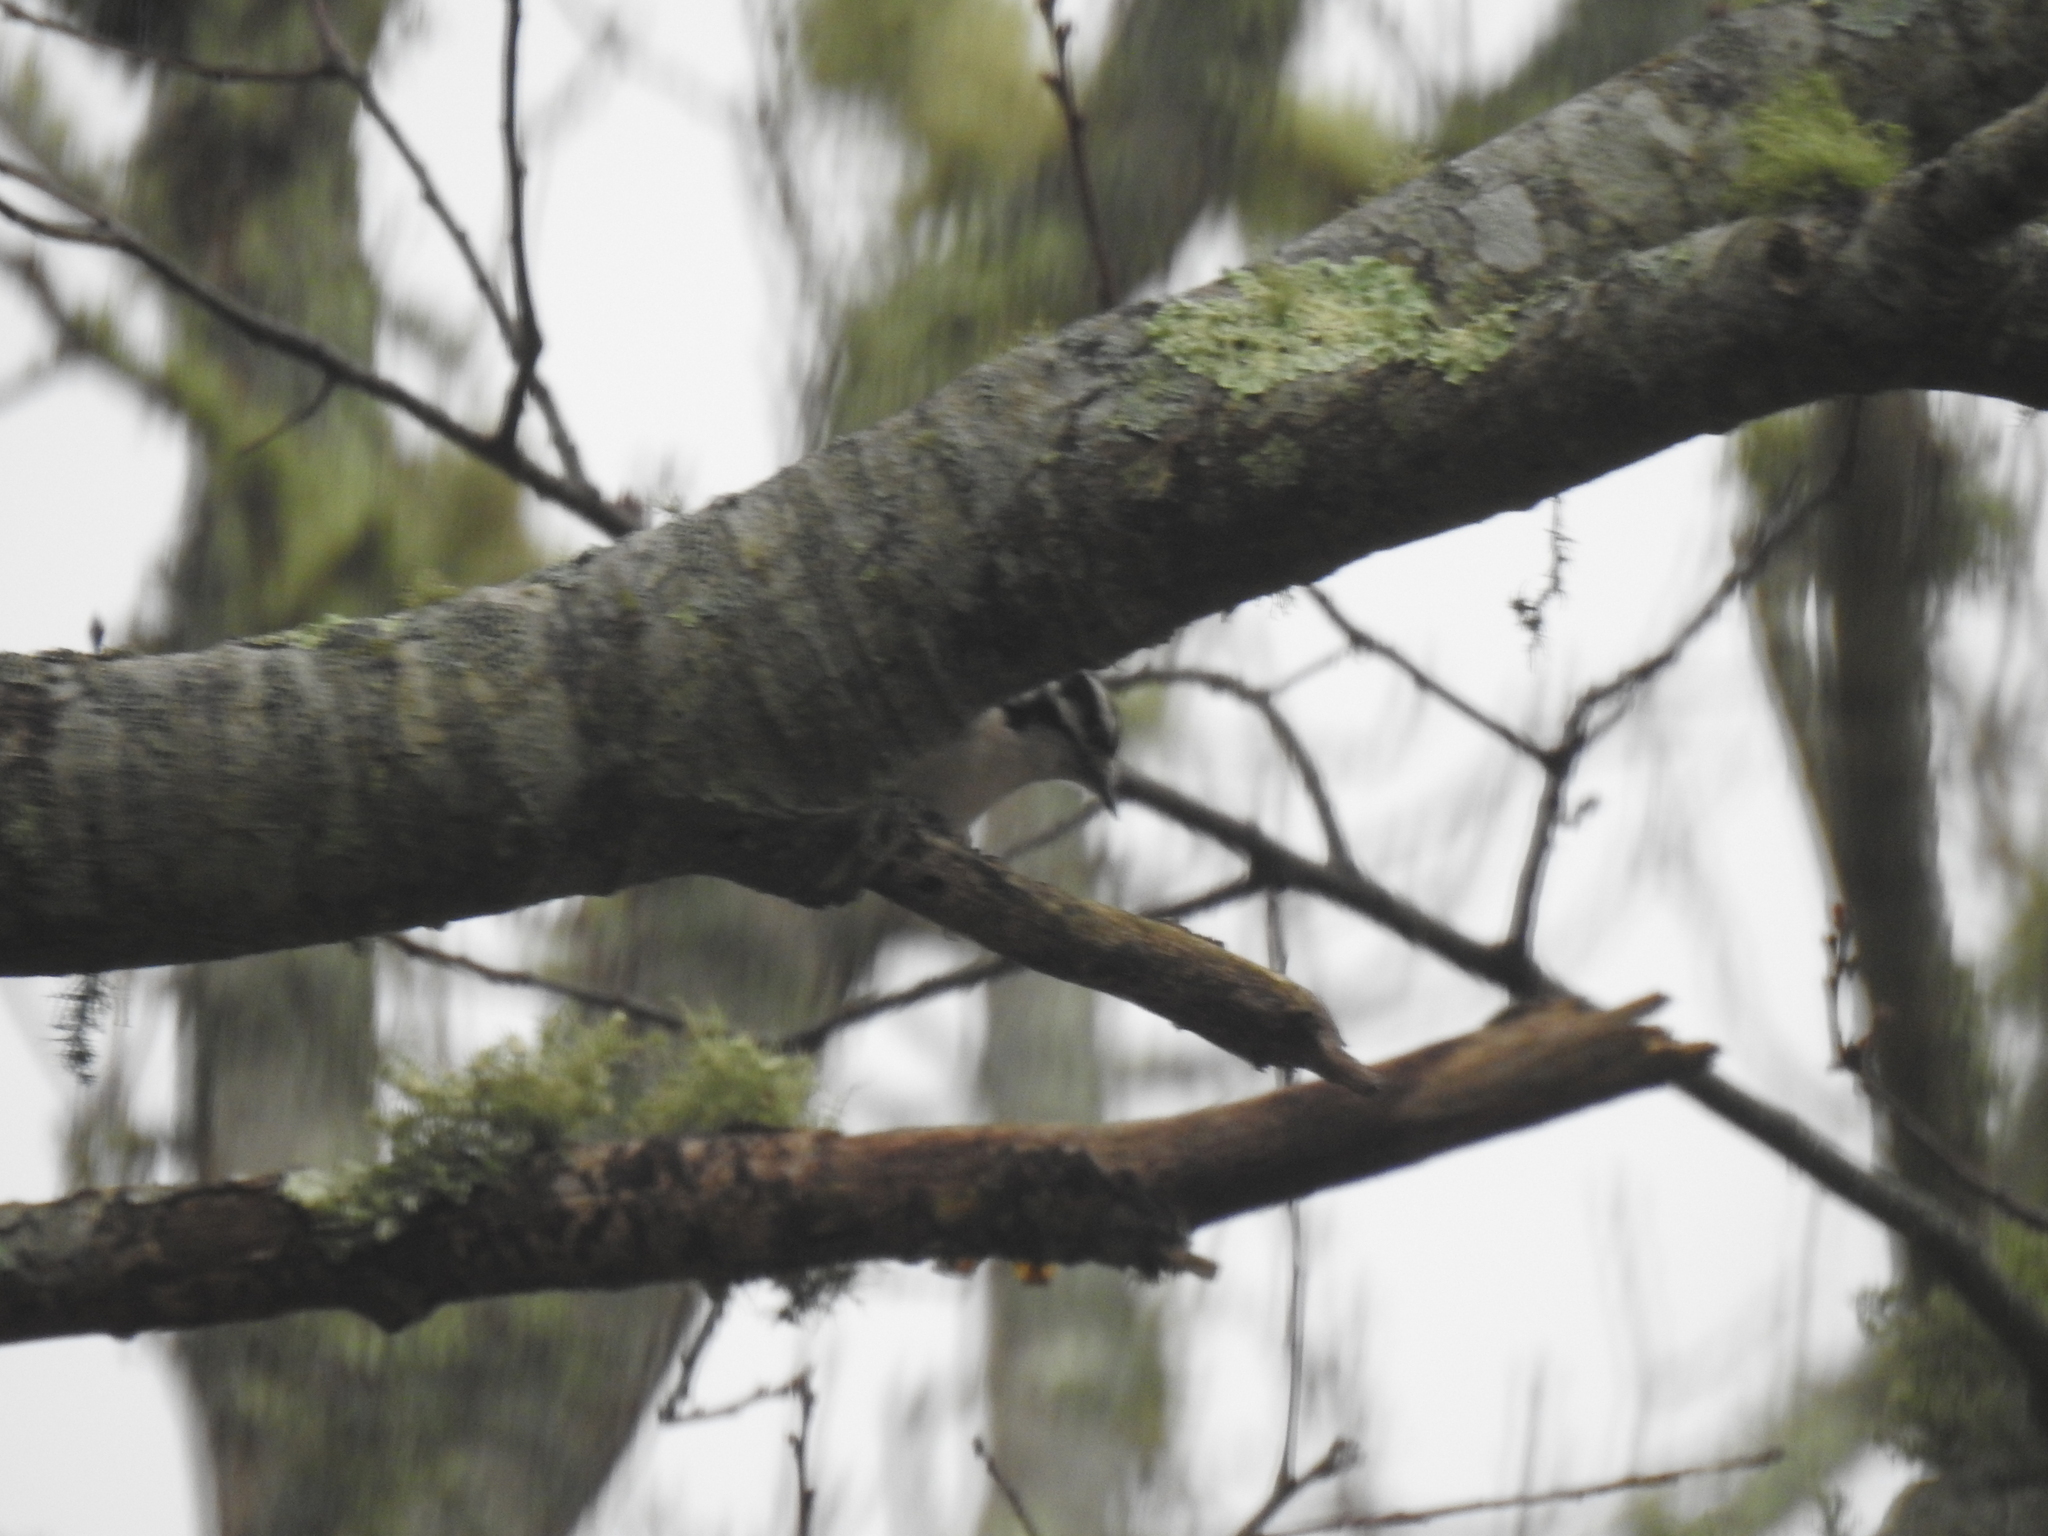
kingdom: Animalia
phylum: Chordata
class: Aves
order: Piciformes
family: Picidae
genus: Dryobates
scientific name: Dryobates pubescens
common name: Downy woodpecker
